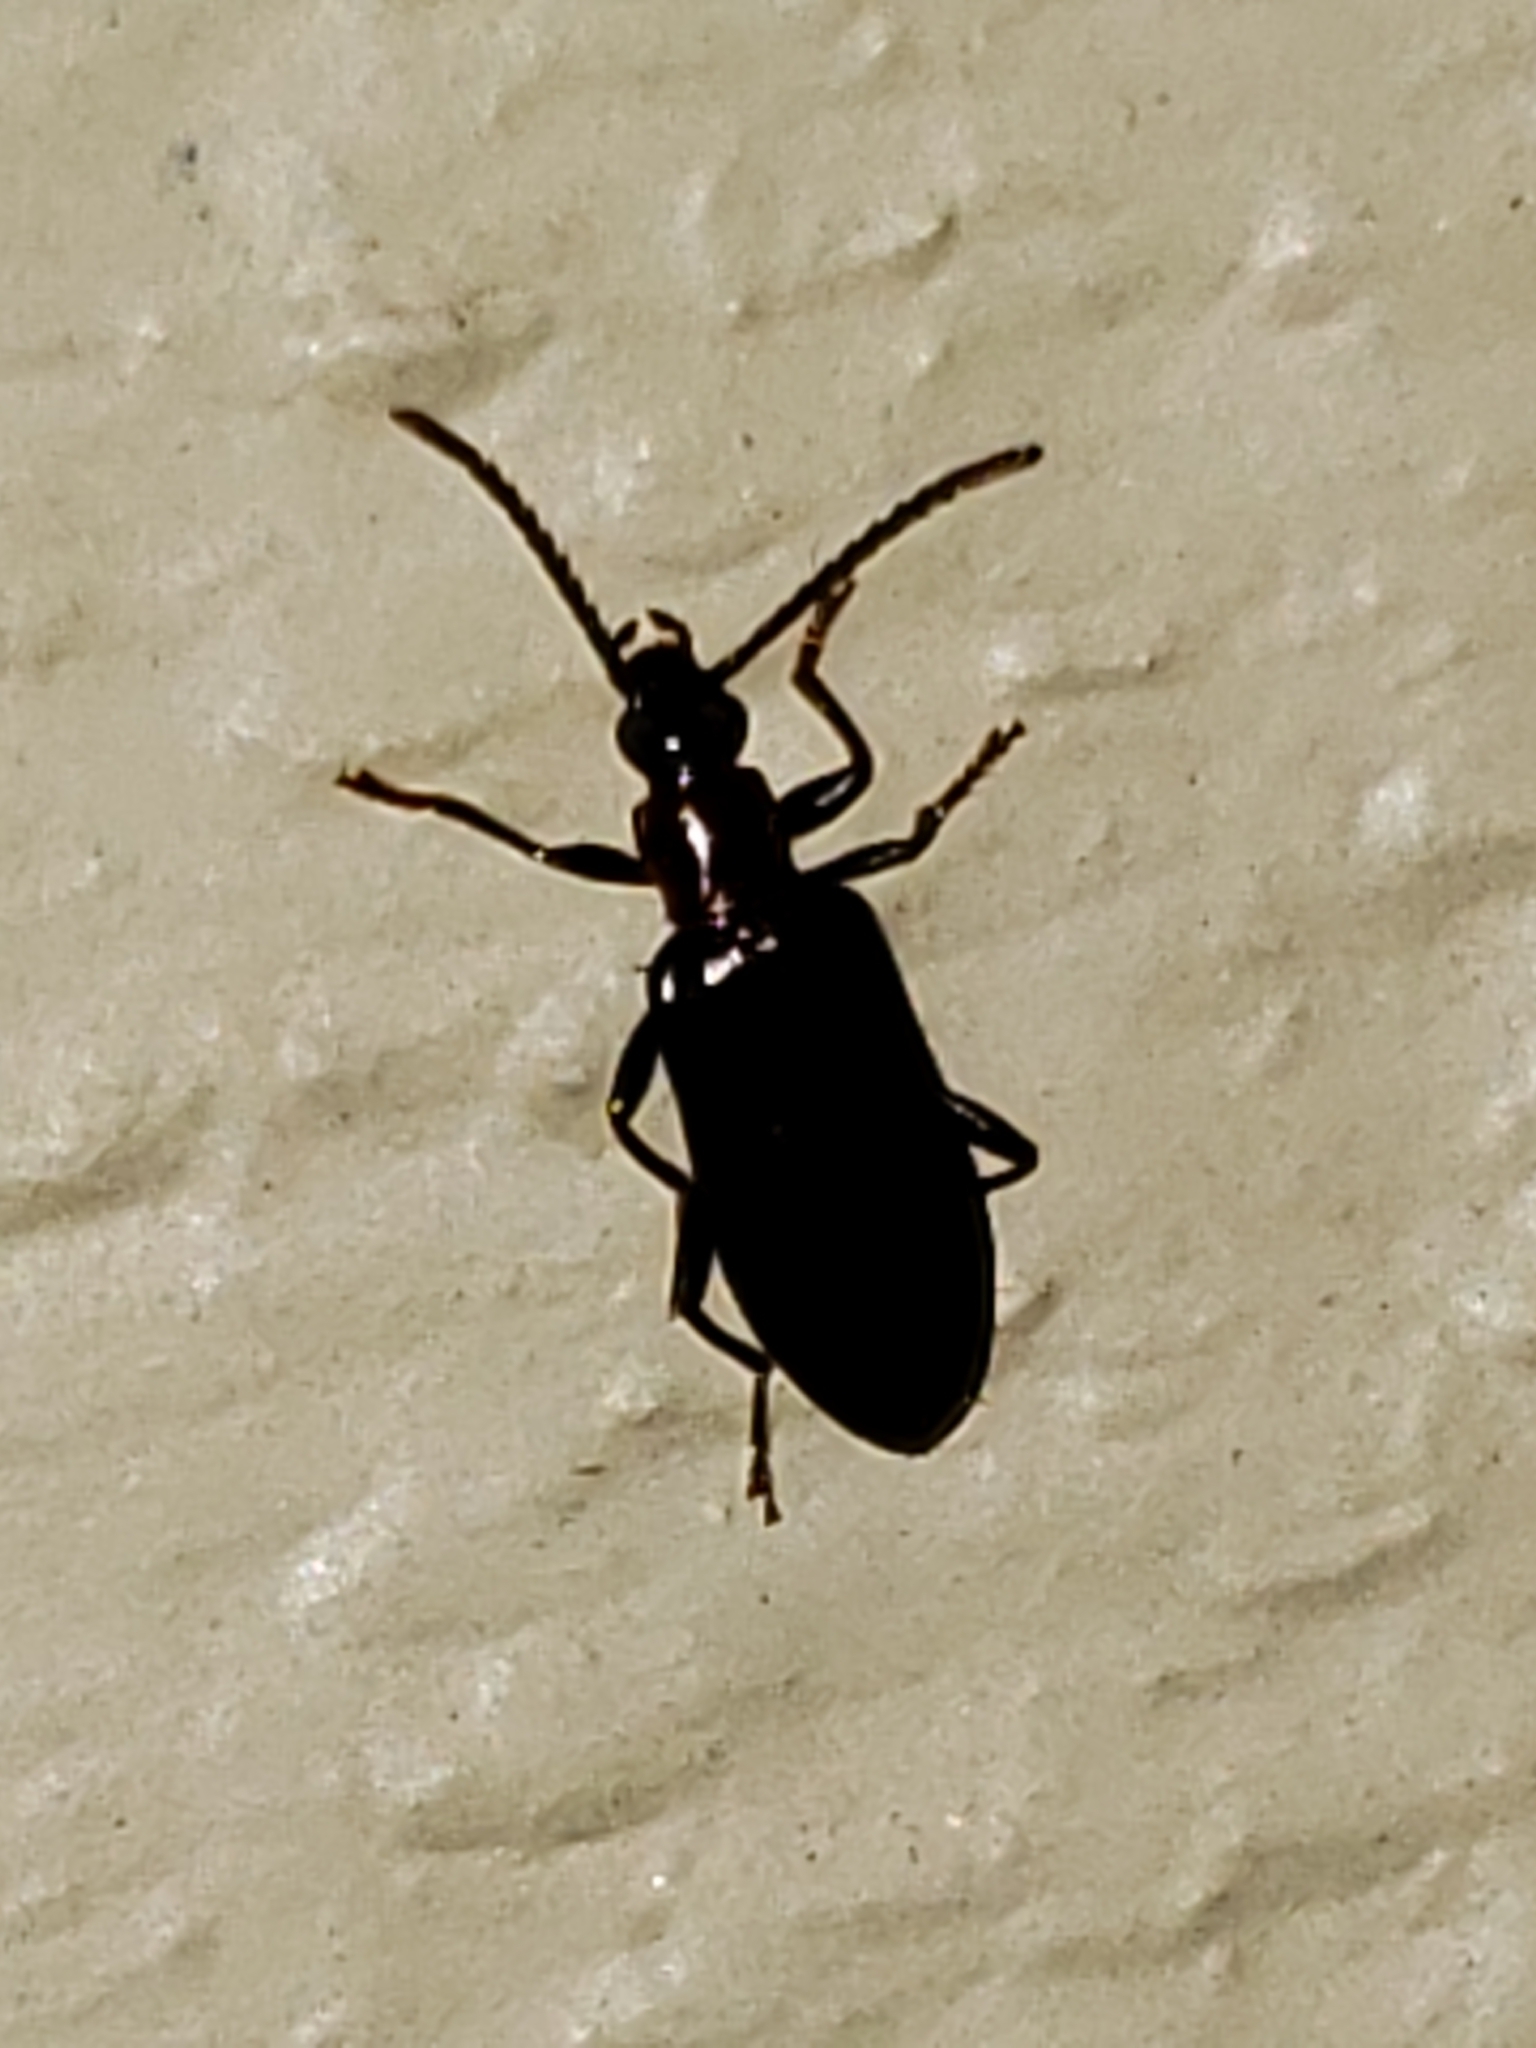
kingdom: Animalia
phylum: Arthropoda
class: Insecta
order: Coleoptera
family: Tenebrionidae
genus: Statira
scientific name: Statira gagatina
